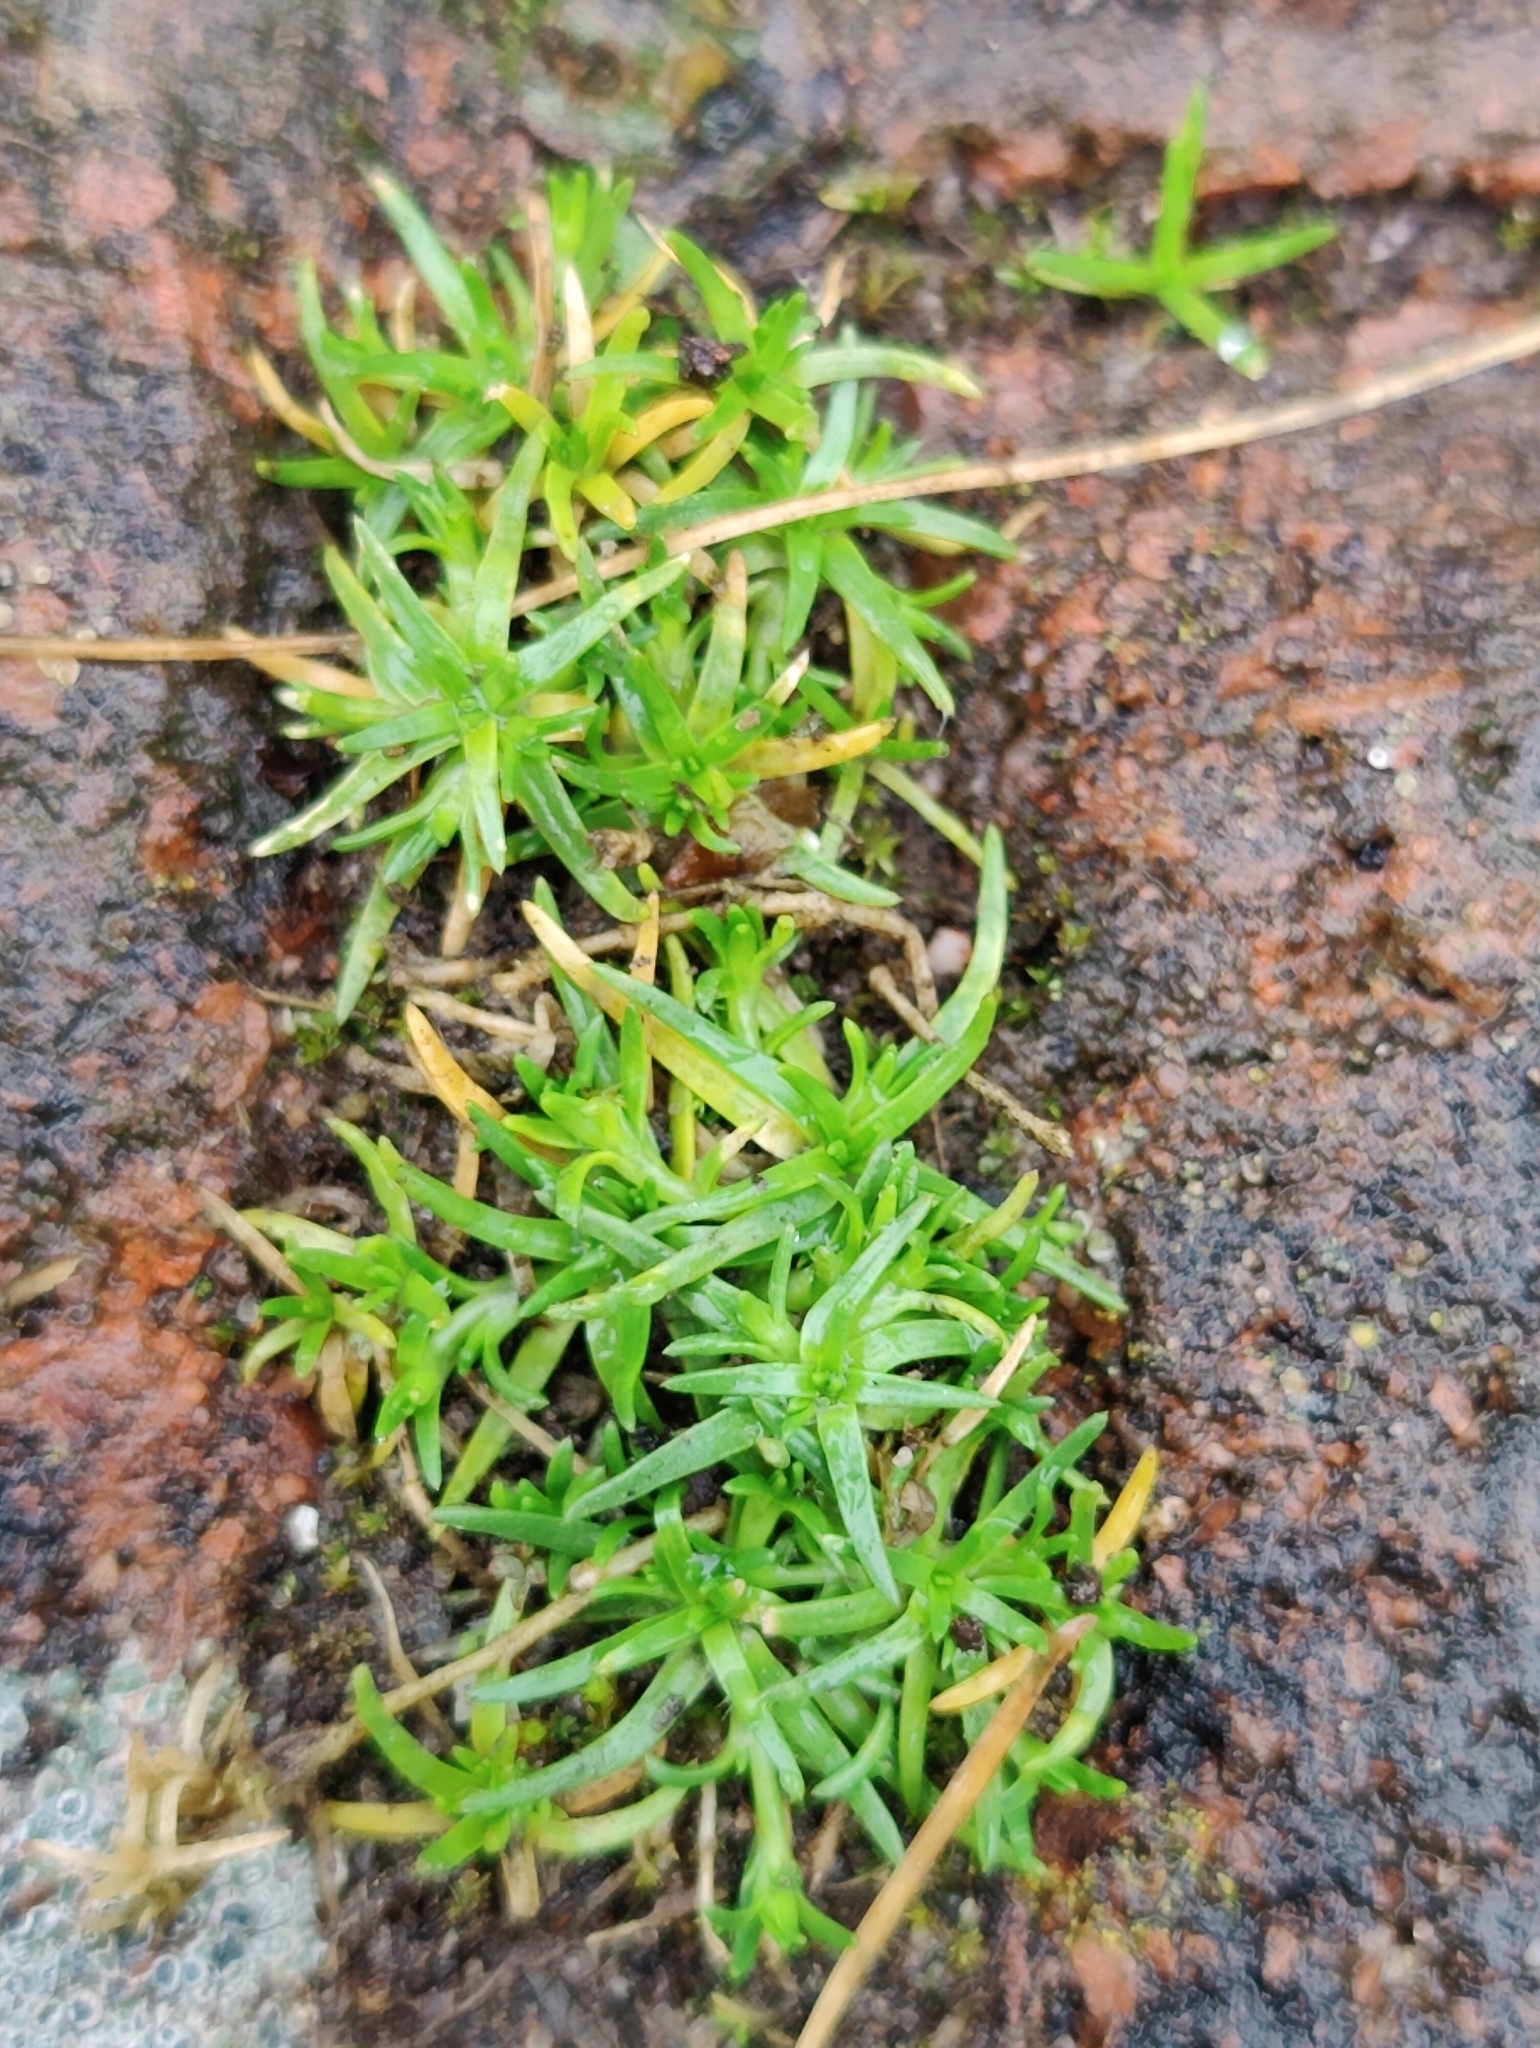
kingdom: Plantae
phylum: Tracheophyta
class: Magnoliopsida
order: Caryophyllales
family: Caryophyllaceae
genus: Sagina
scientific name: Sagina procumbens
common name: Procumbent pearlwort
